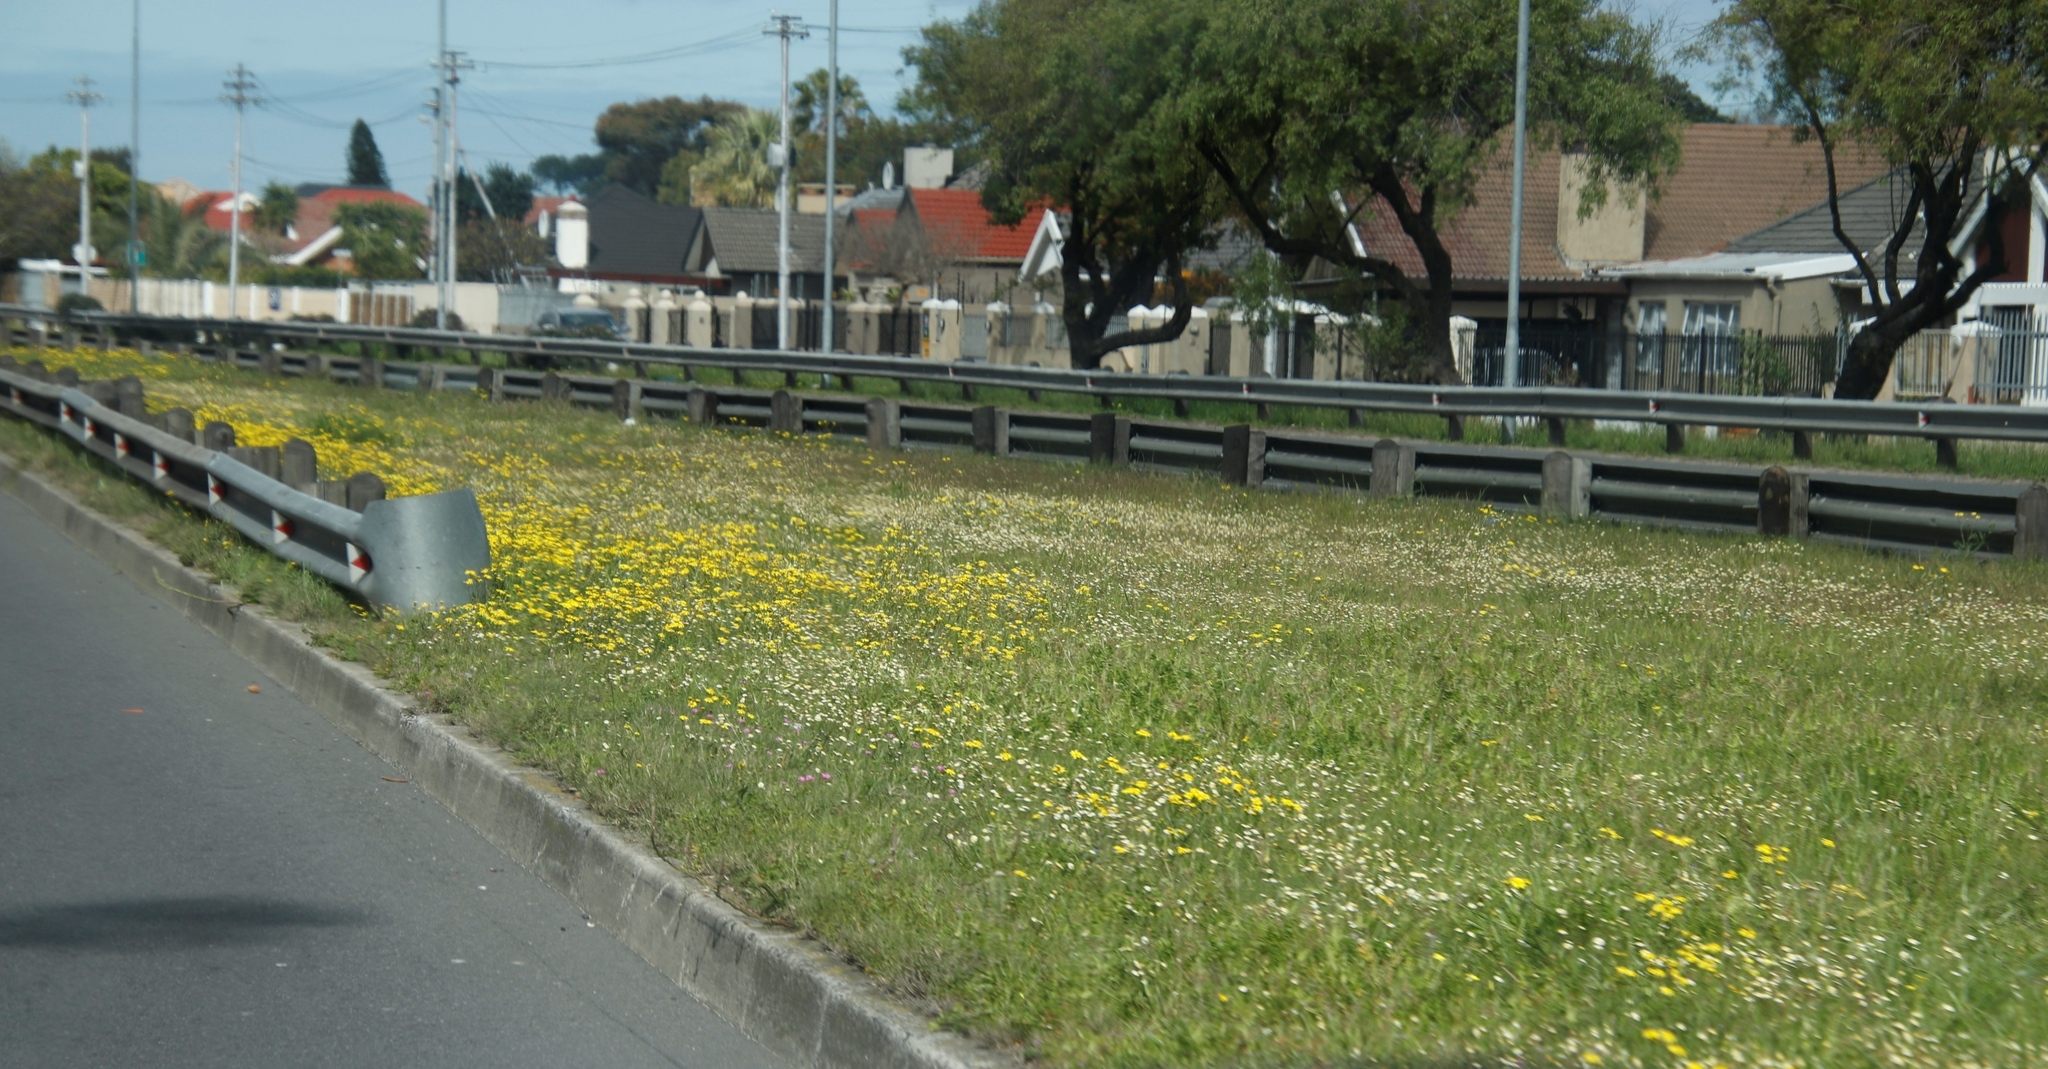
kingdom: Plantae
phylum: Tracheophyta
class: Magnoliopsida
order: Asterales
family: Asteraceae
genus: Cotula
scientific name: Cotula turbinata
